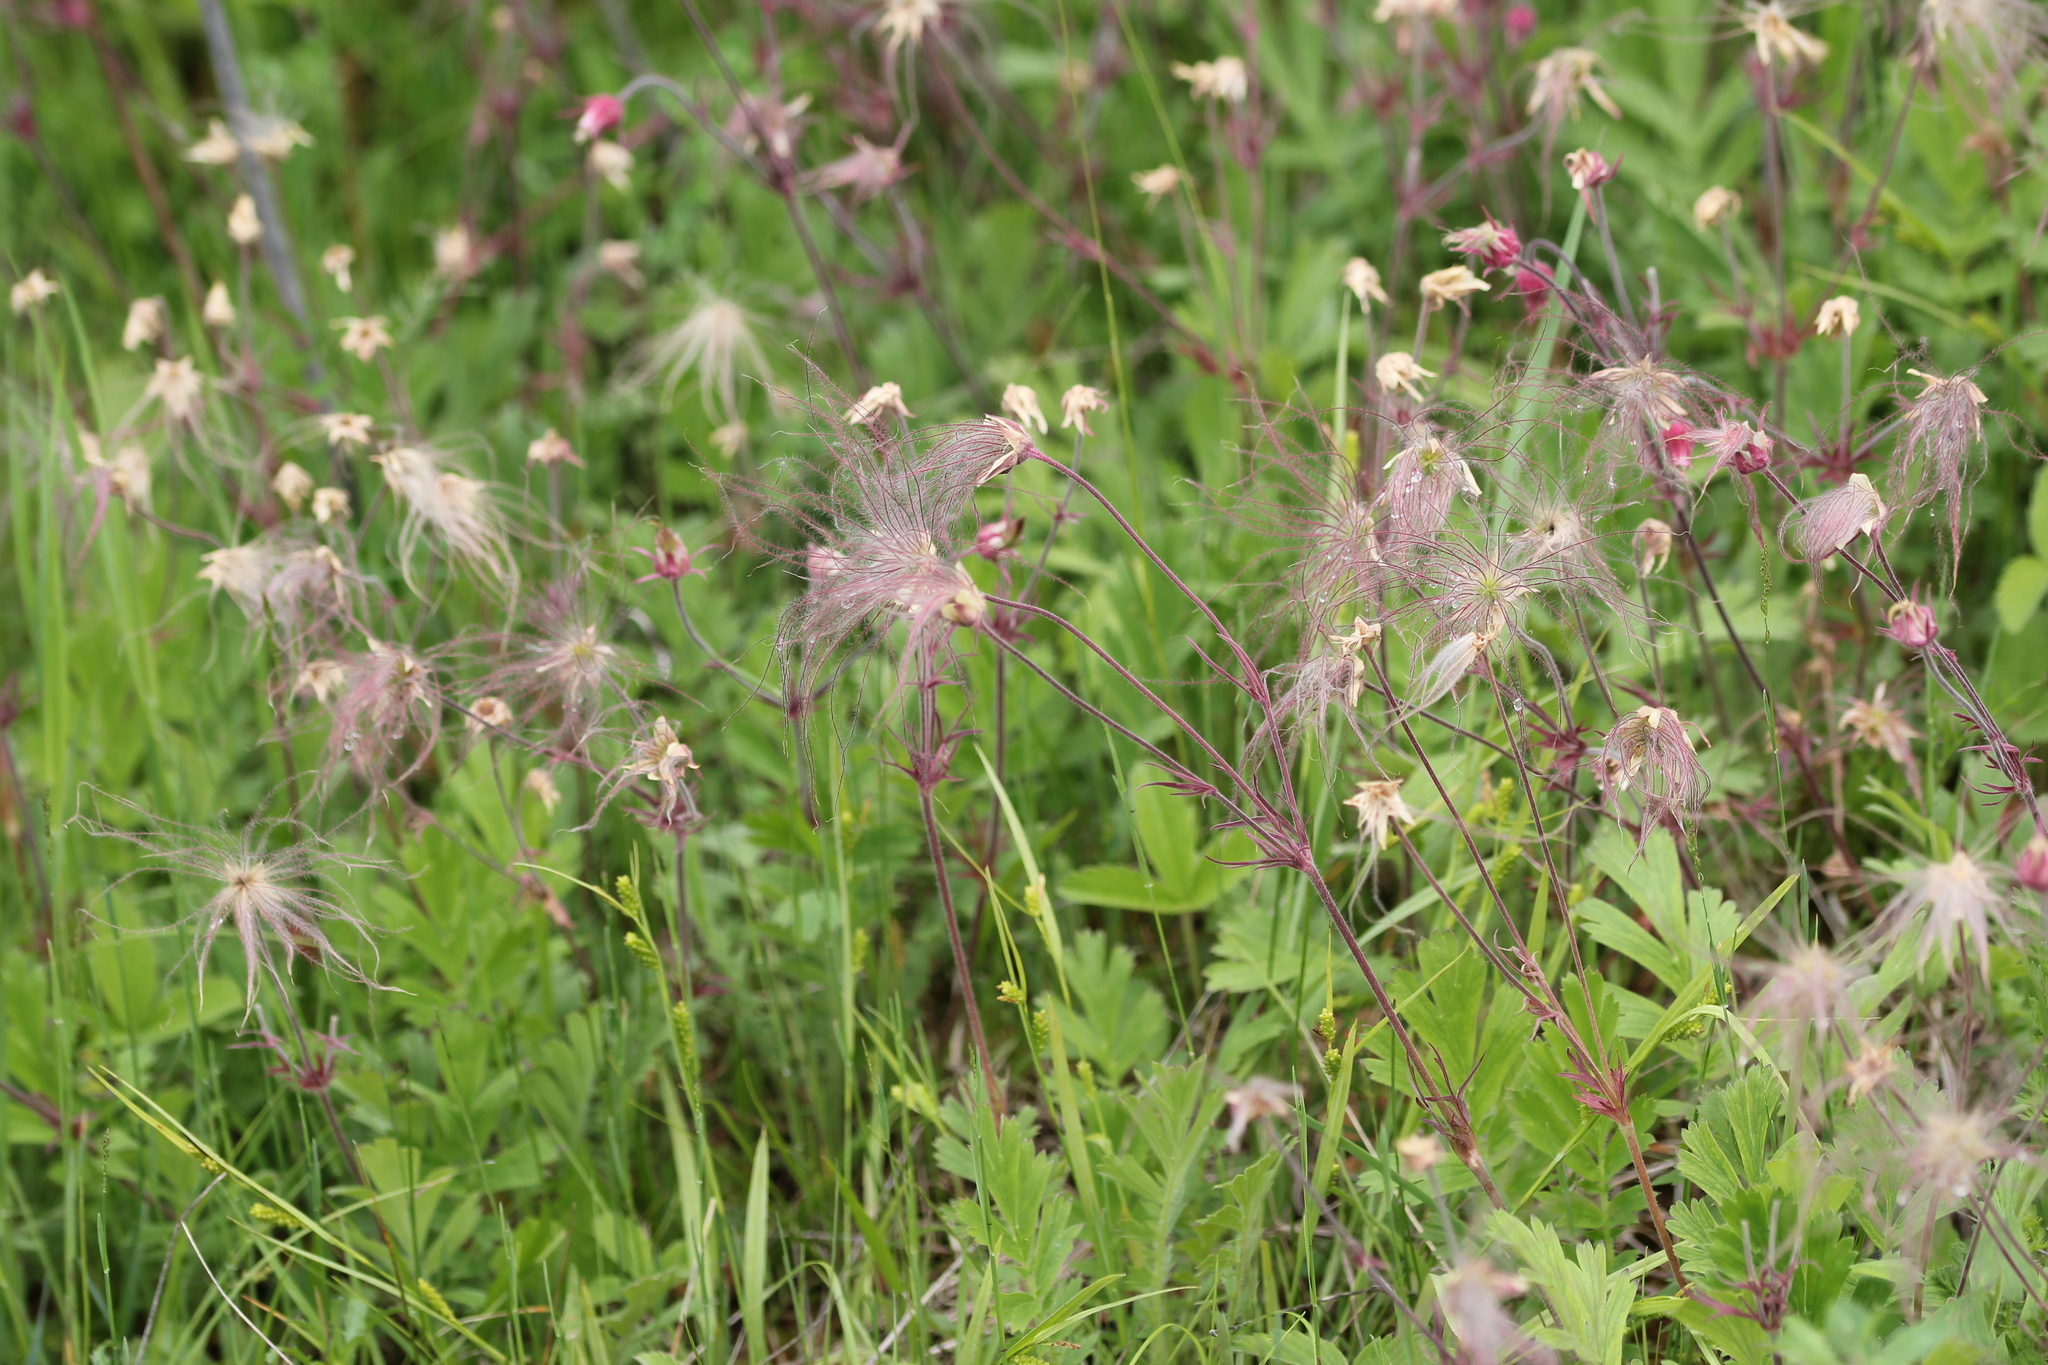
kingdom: Plantae
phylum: Tracheophyta
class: Magnoliopsida
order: Rosales
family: Rosaceae
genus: Geum
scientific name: Geum triflorum
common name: Old man's whiskers
